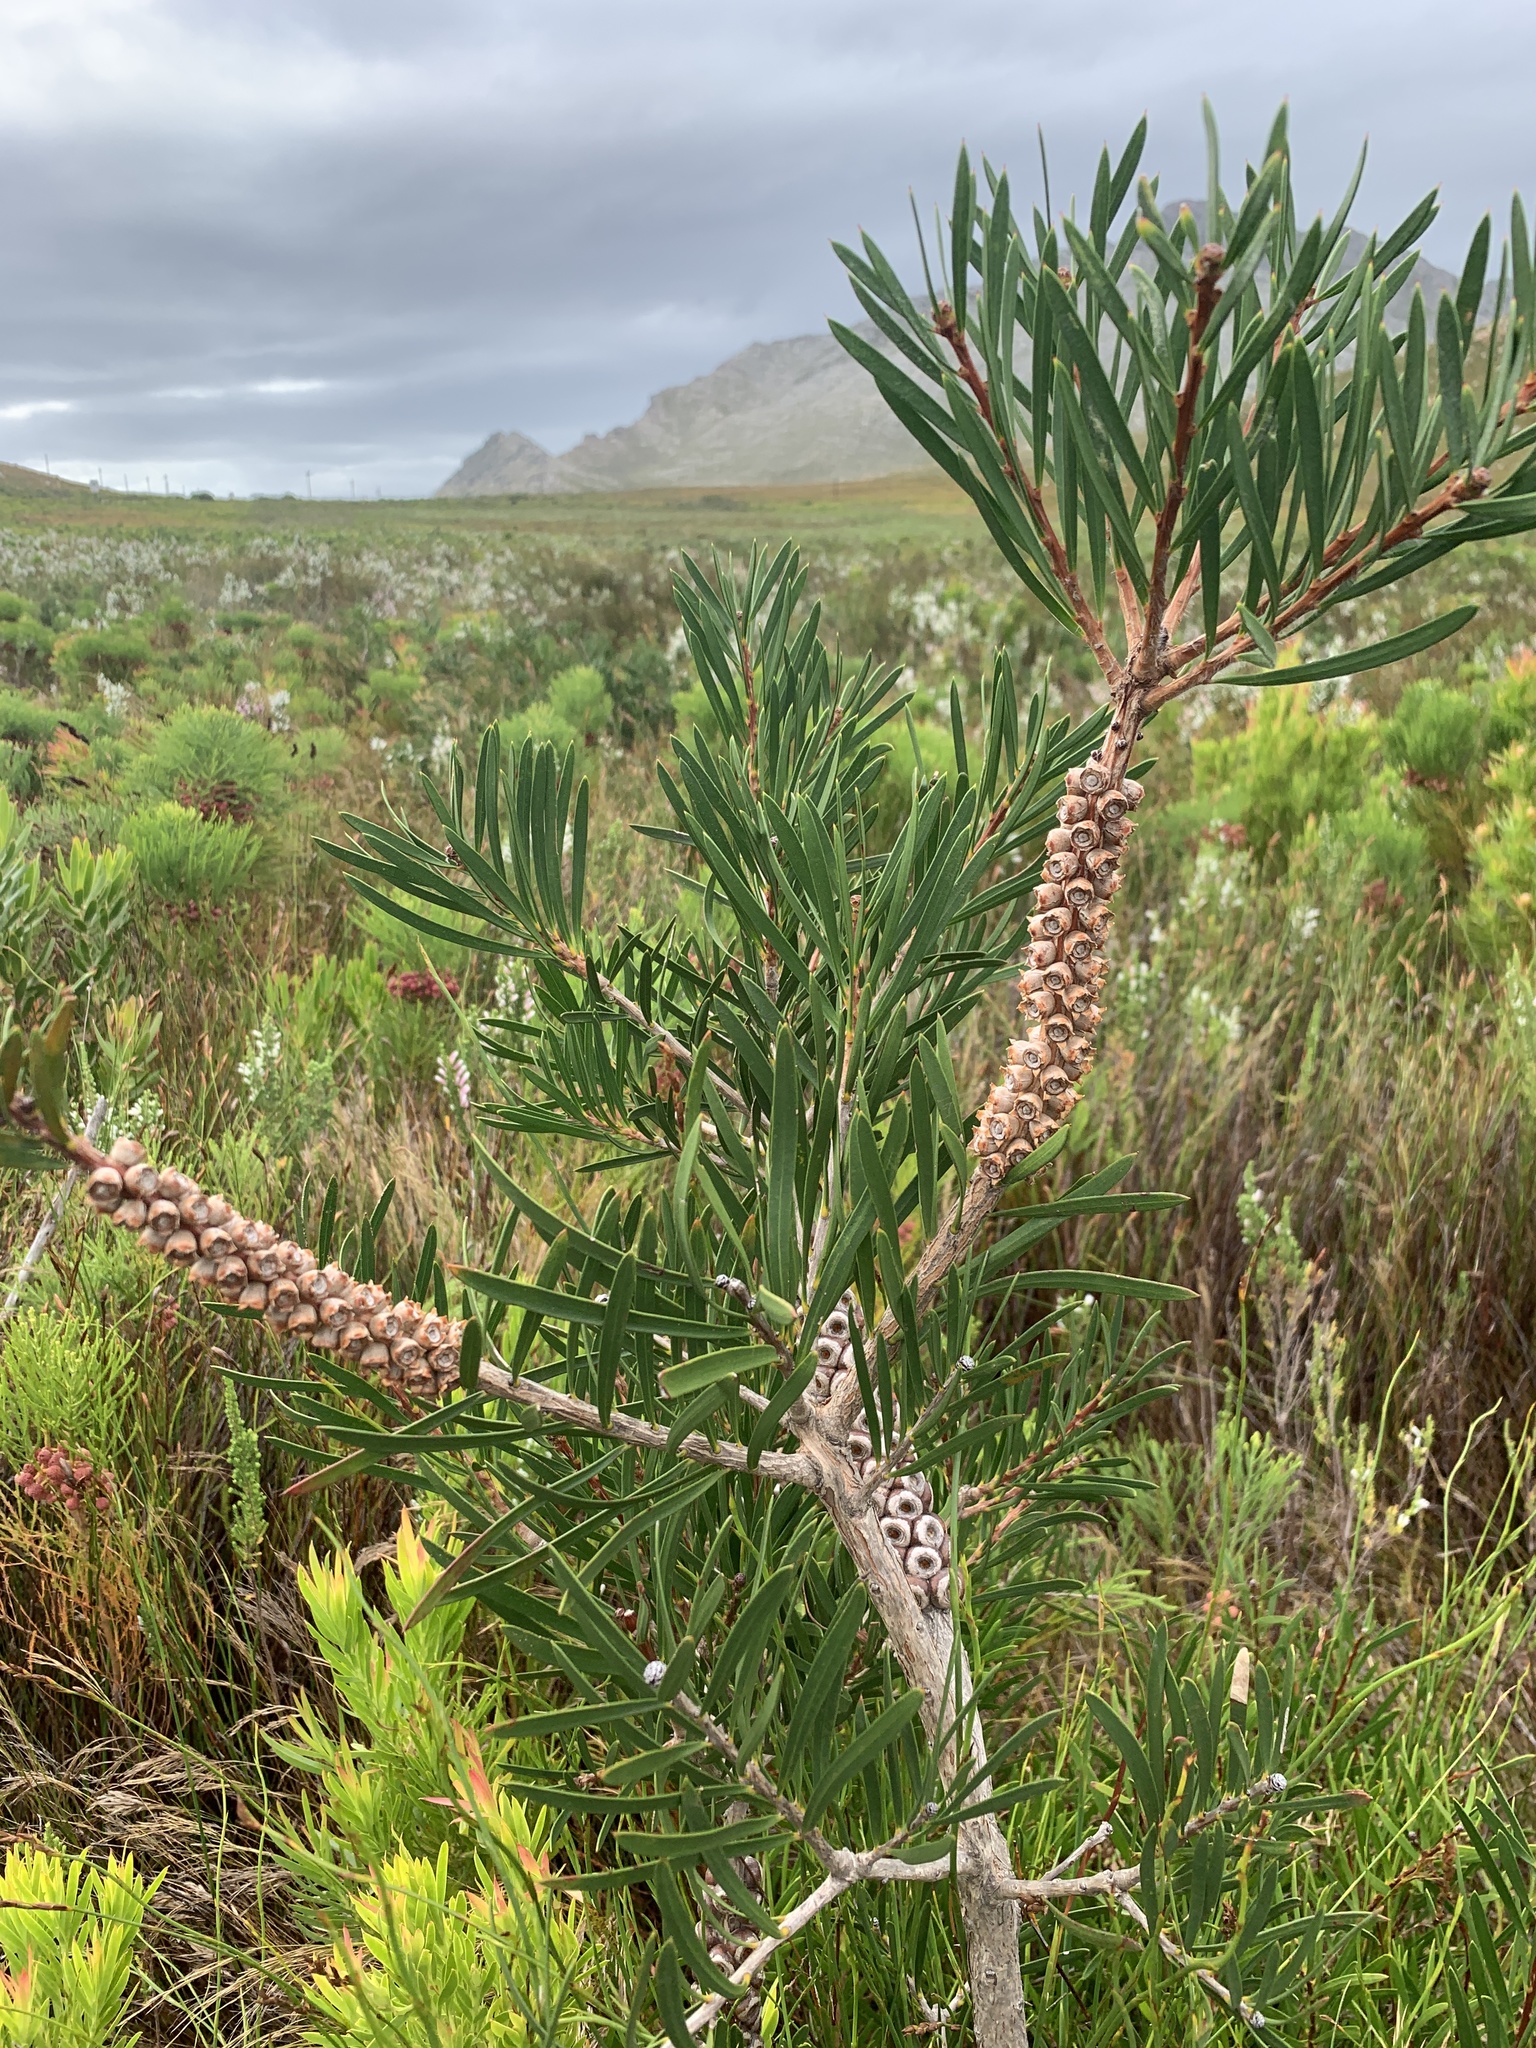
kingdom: Plantae
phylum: Tracheophyta
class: Magnoliopsida
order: Myrtales
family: Myrtaceae
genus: Callistemon
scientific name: Callistemon linearis
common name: Narrow-leaf bottlebrush
